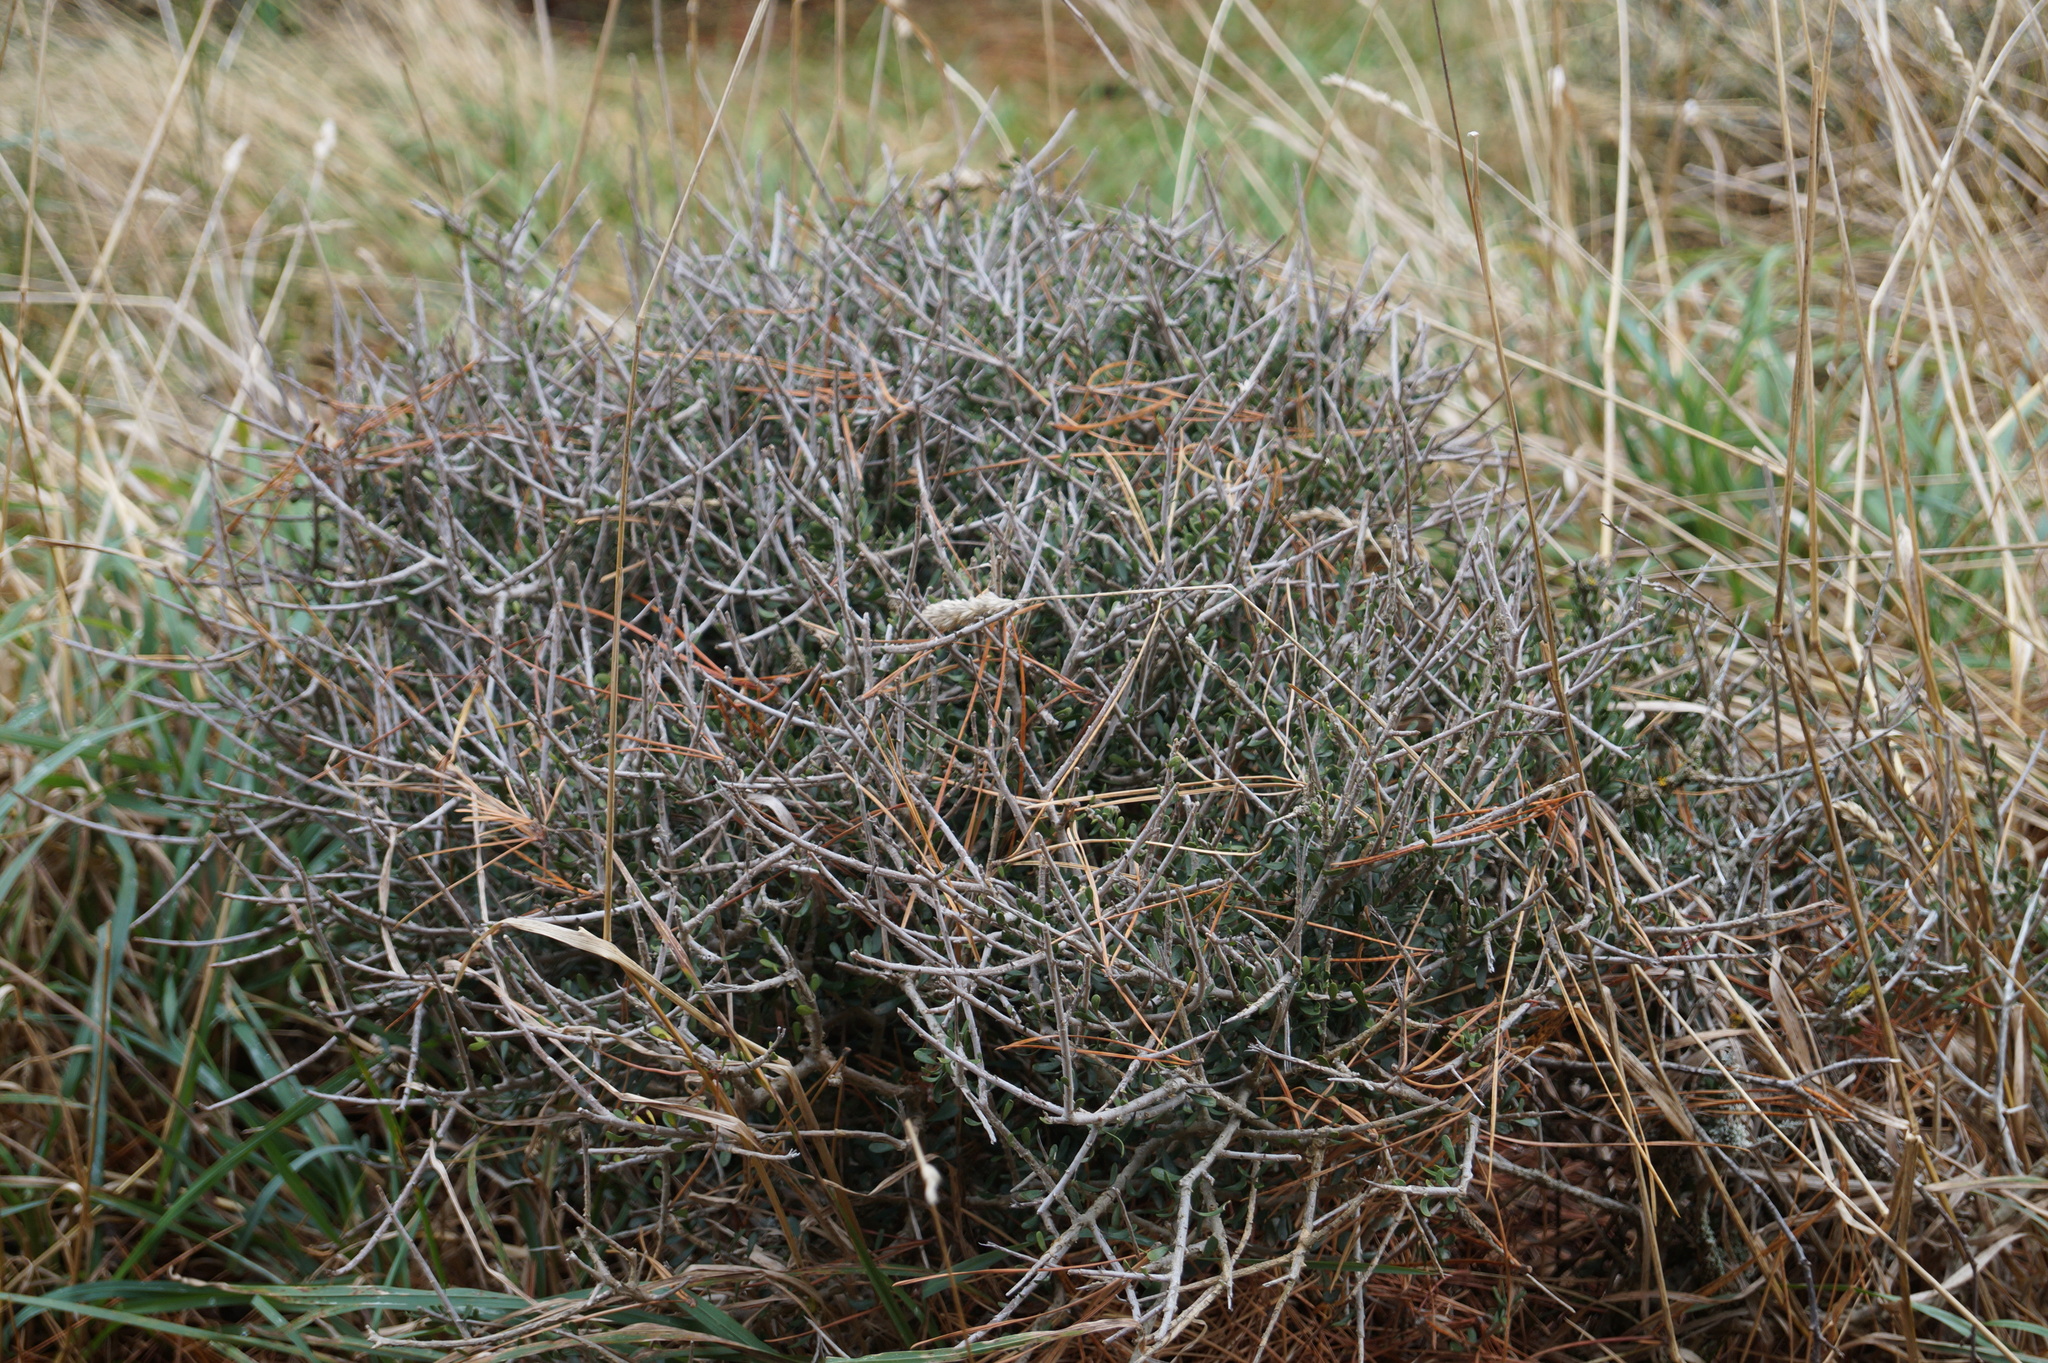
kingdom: Plantae
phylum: Tracheophyta
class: Magnoliopsida
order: Malpighiales
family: Violaceae
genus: Melicytus
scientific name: Melicytus alpinus
